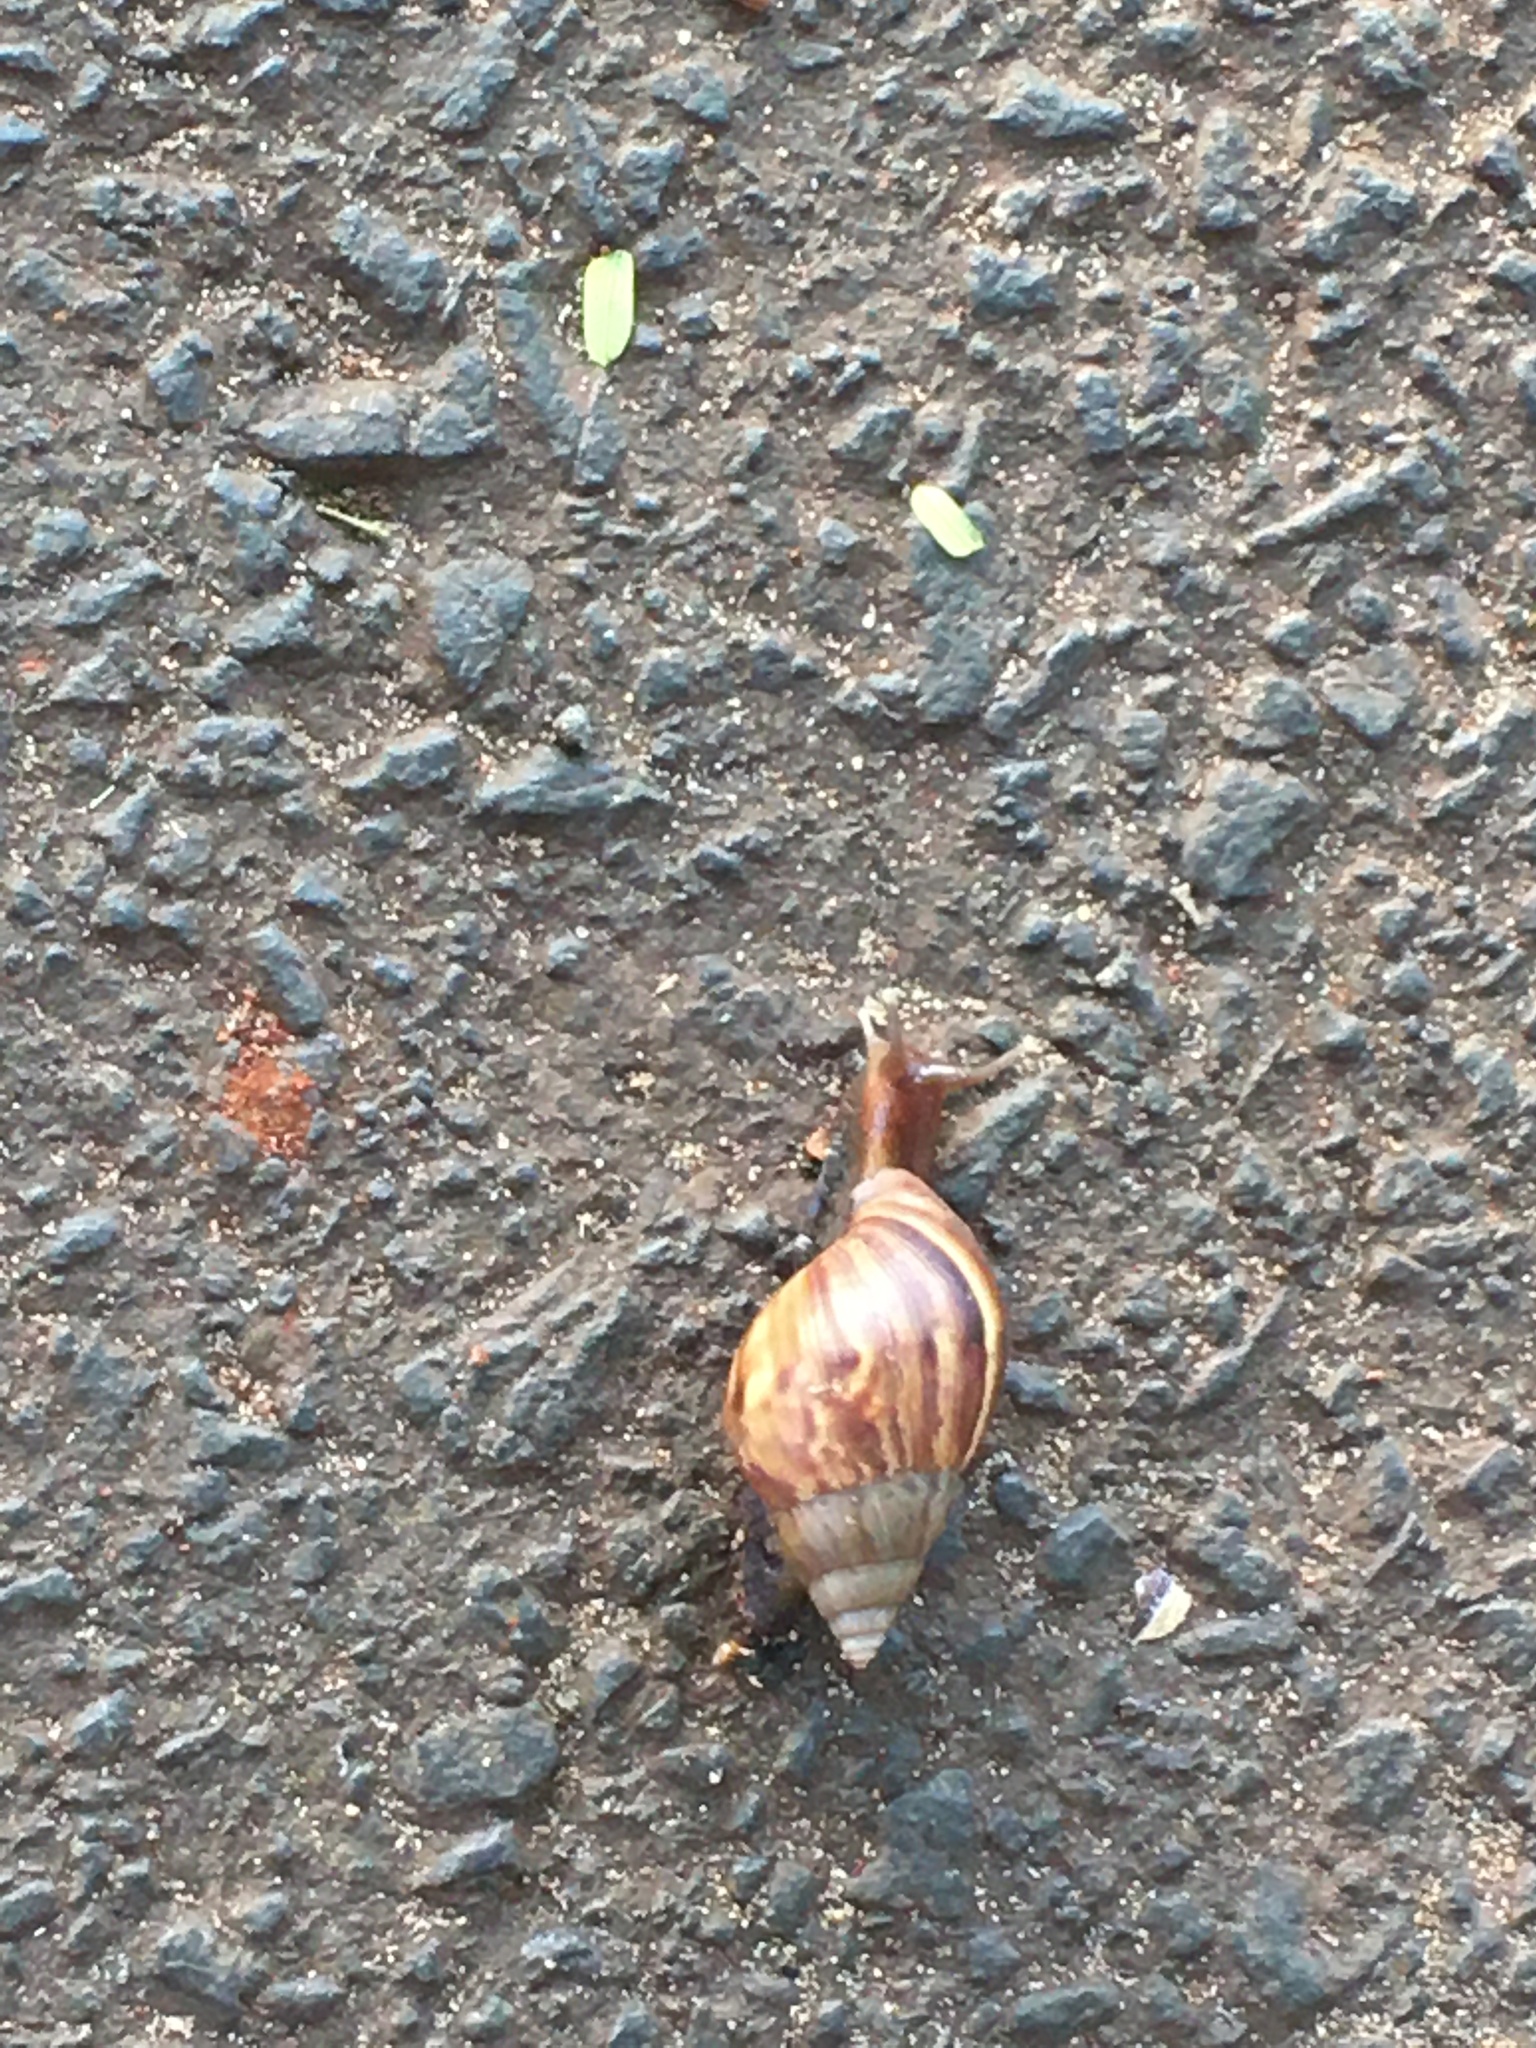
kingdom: Animalia
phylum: Mollusca
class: Gastropoda
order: Stylommatophora
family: Achatinidae
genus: Lissachatina
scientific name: Lissachatina fulica
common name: Giant african snail
